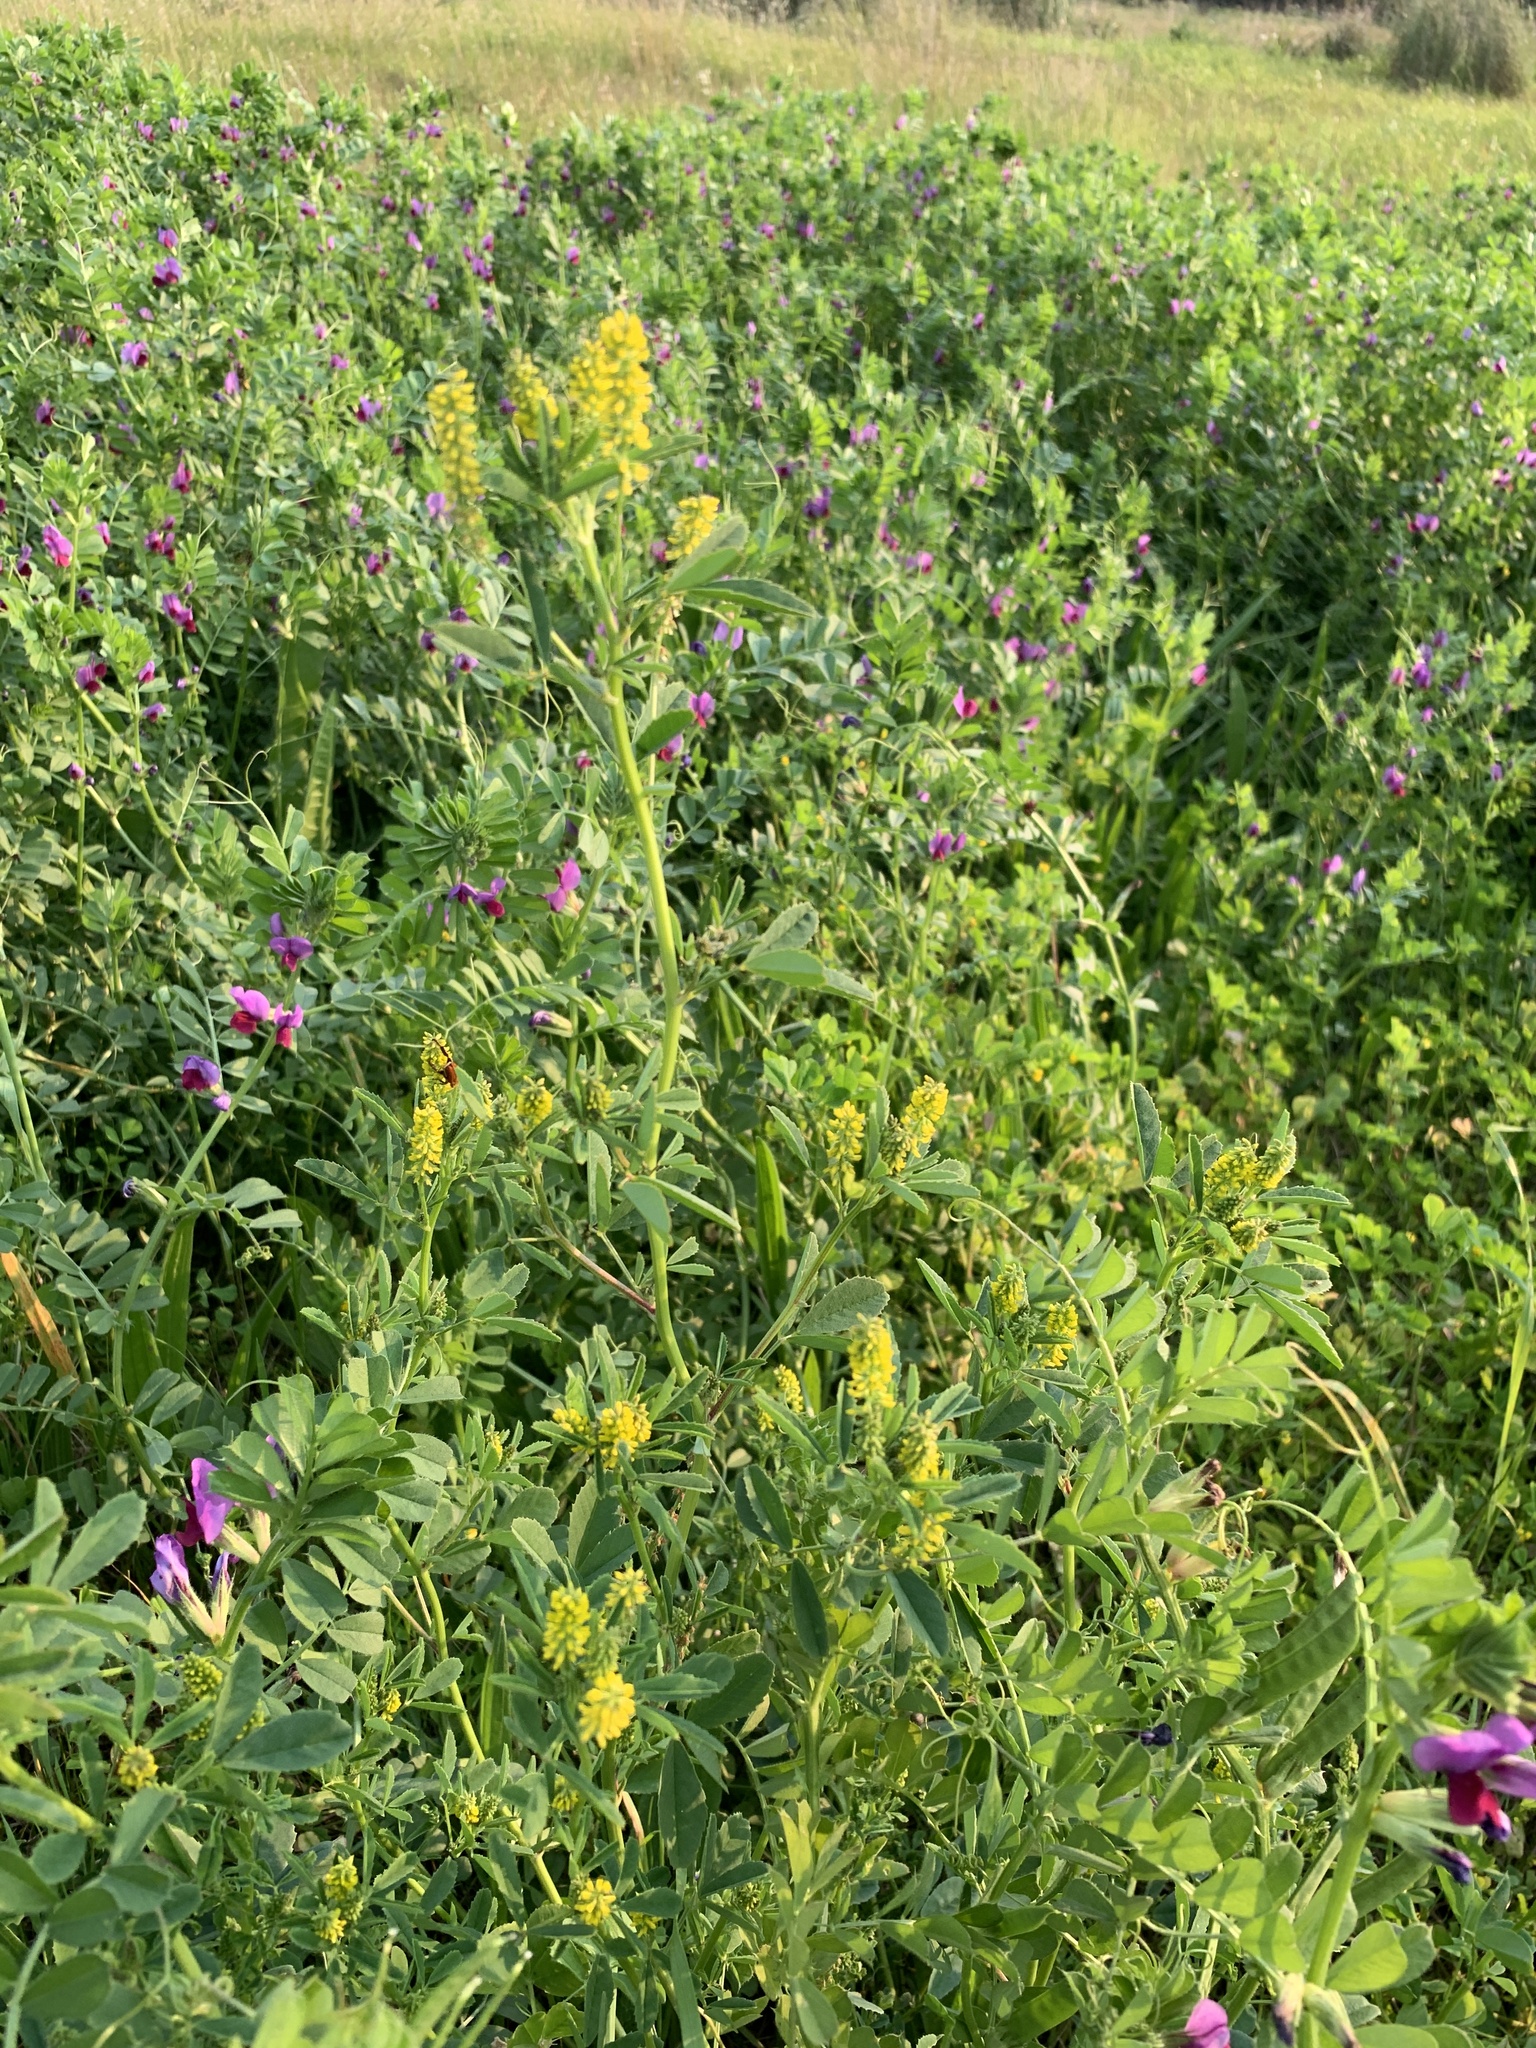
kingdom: Plantae
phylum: Tracheophyta
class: Magnoliopsida
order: Fabales
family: Fabaceae
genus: Melilotus
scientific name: Melilotus indicus
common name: Small melilot
